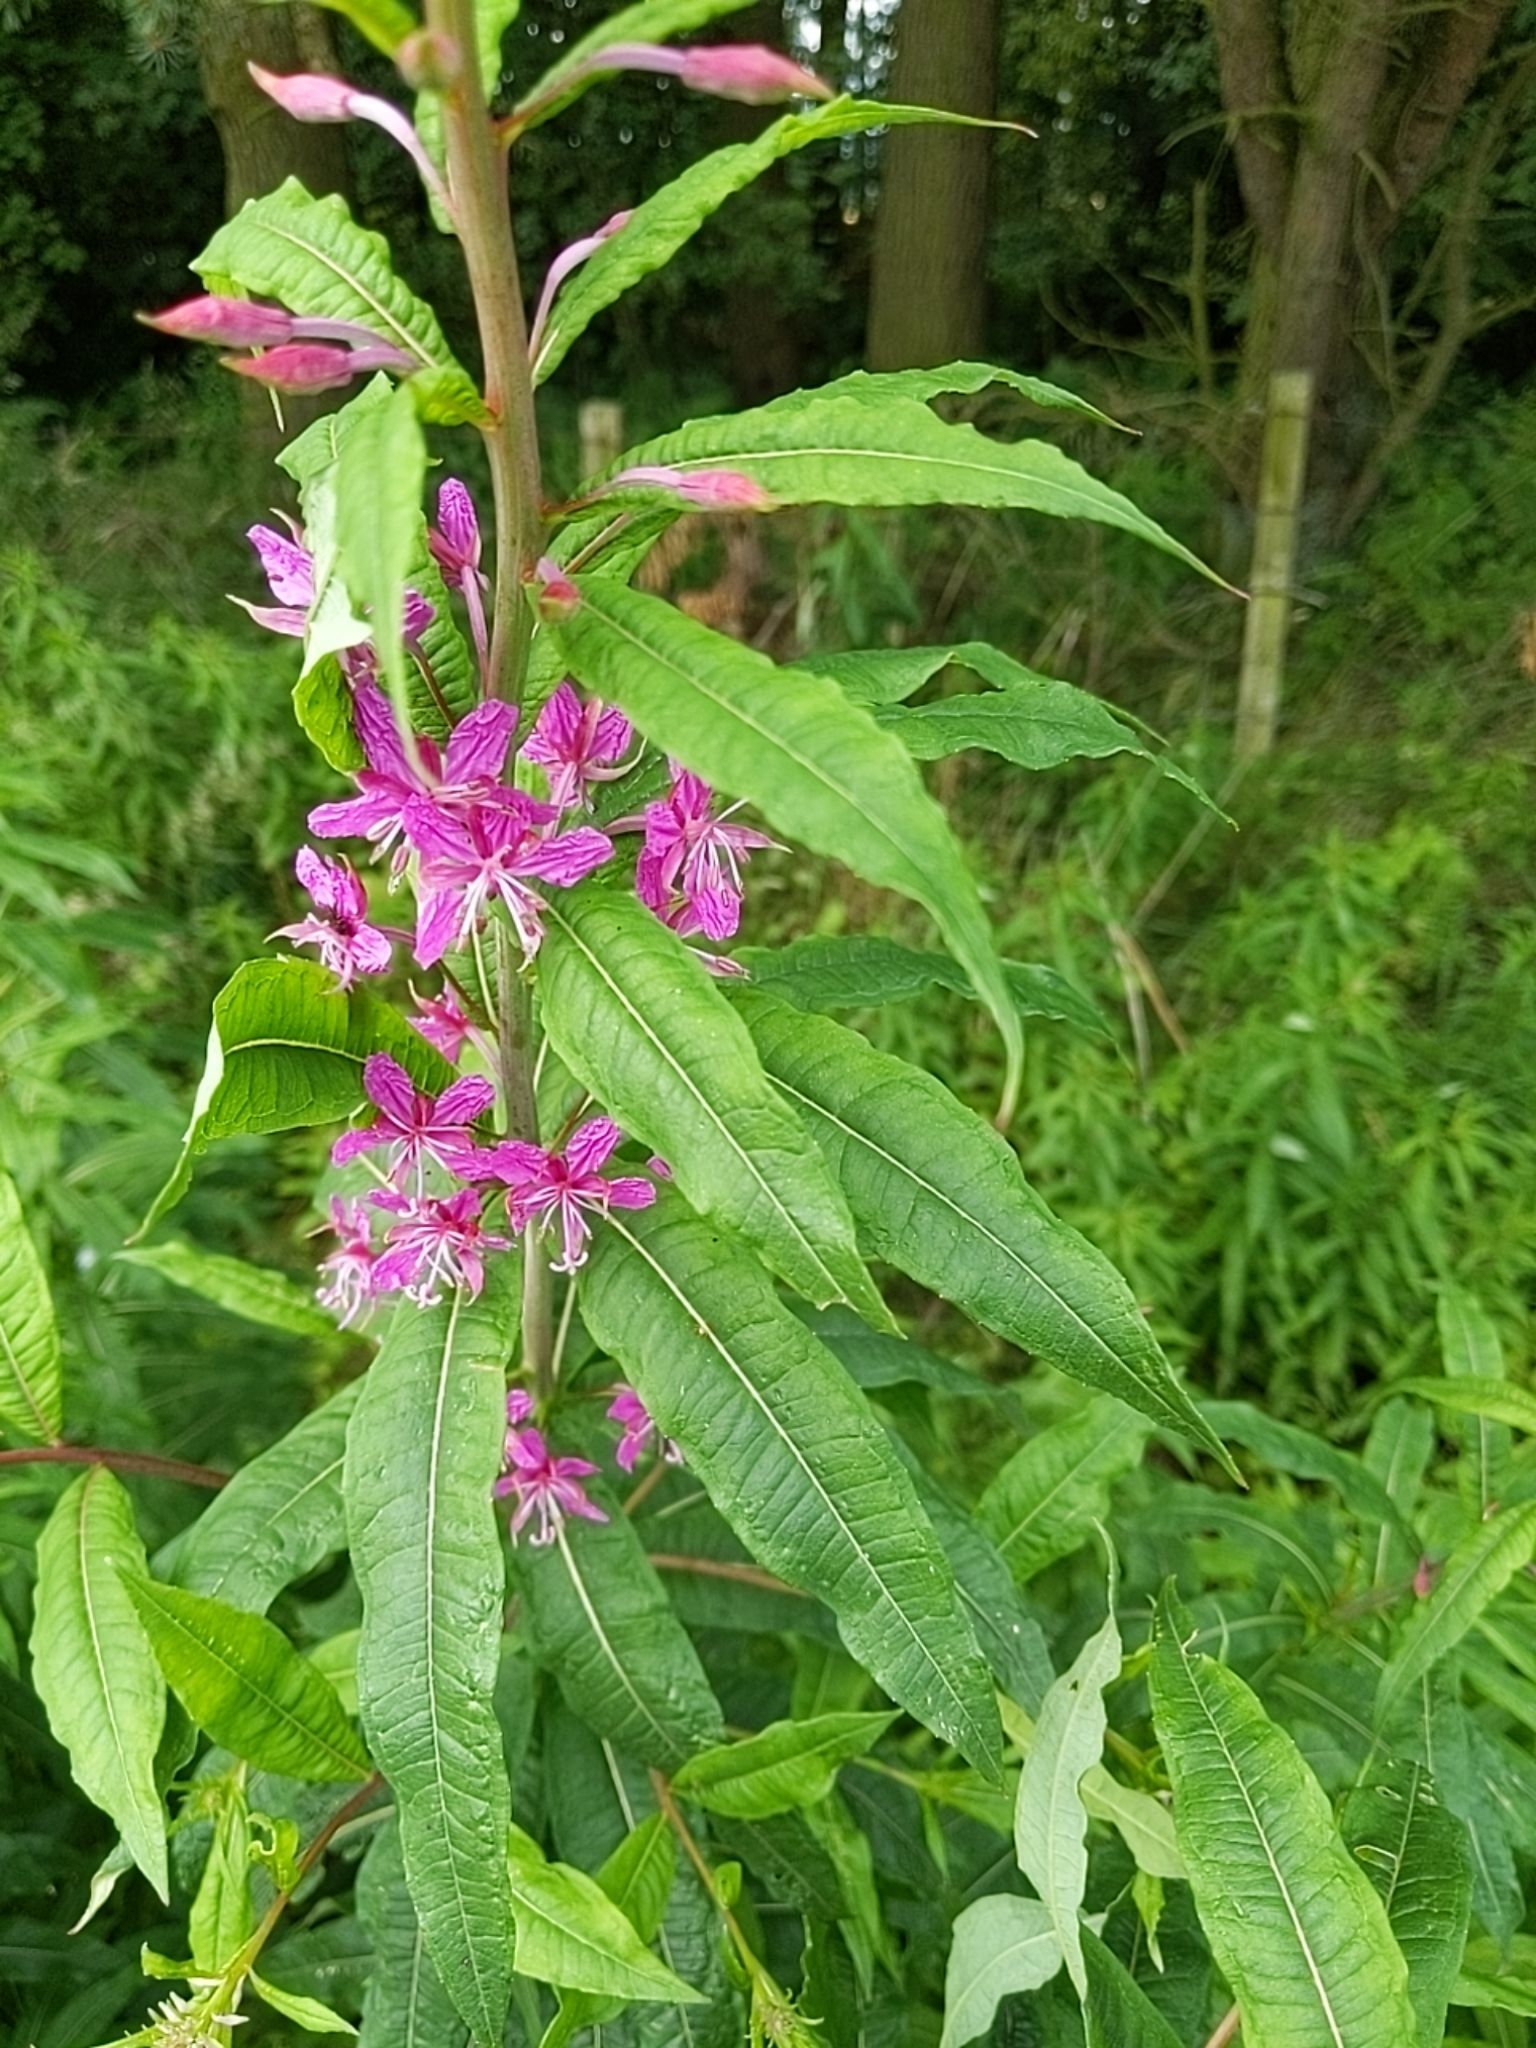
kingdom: Plantae
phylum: Tracheophyta
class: Magnoliopsida
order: Myrtales
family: Onagraceae
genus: Chamaenerion
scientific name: Chamaenerion angustifolium
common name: Fireweed
